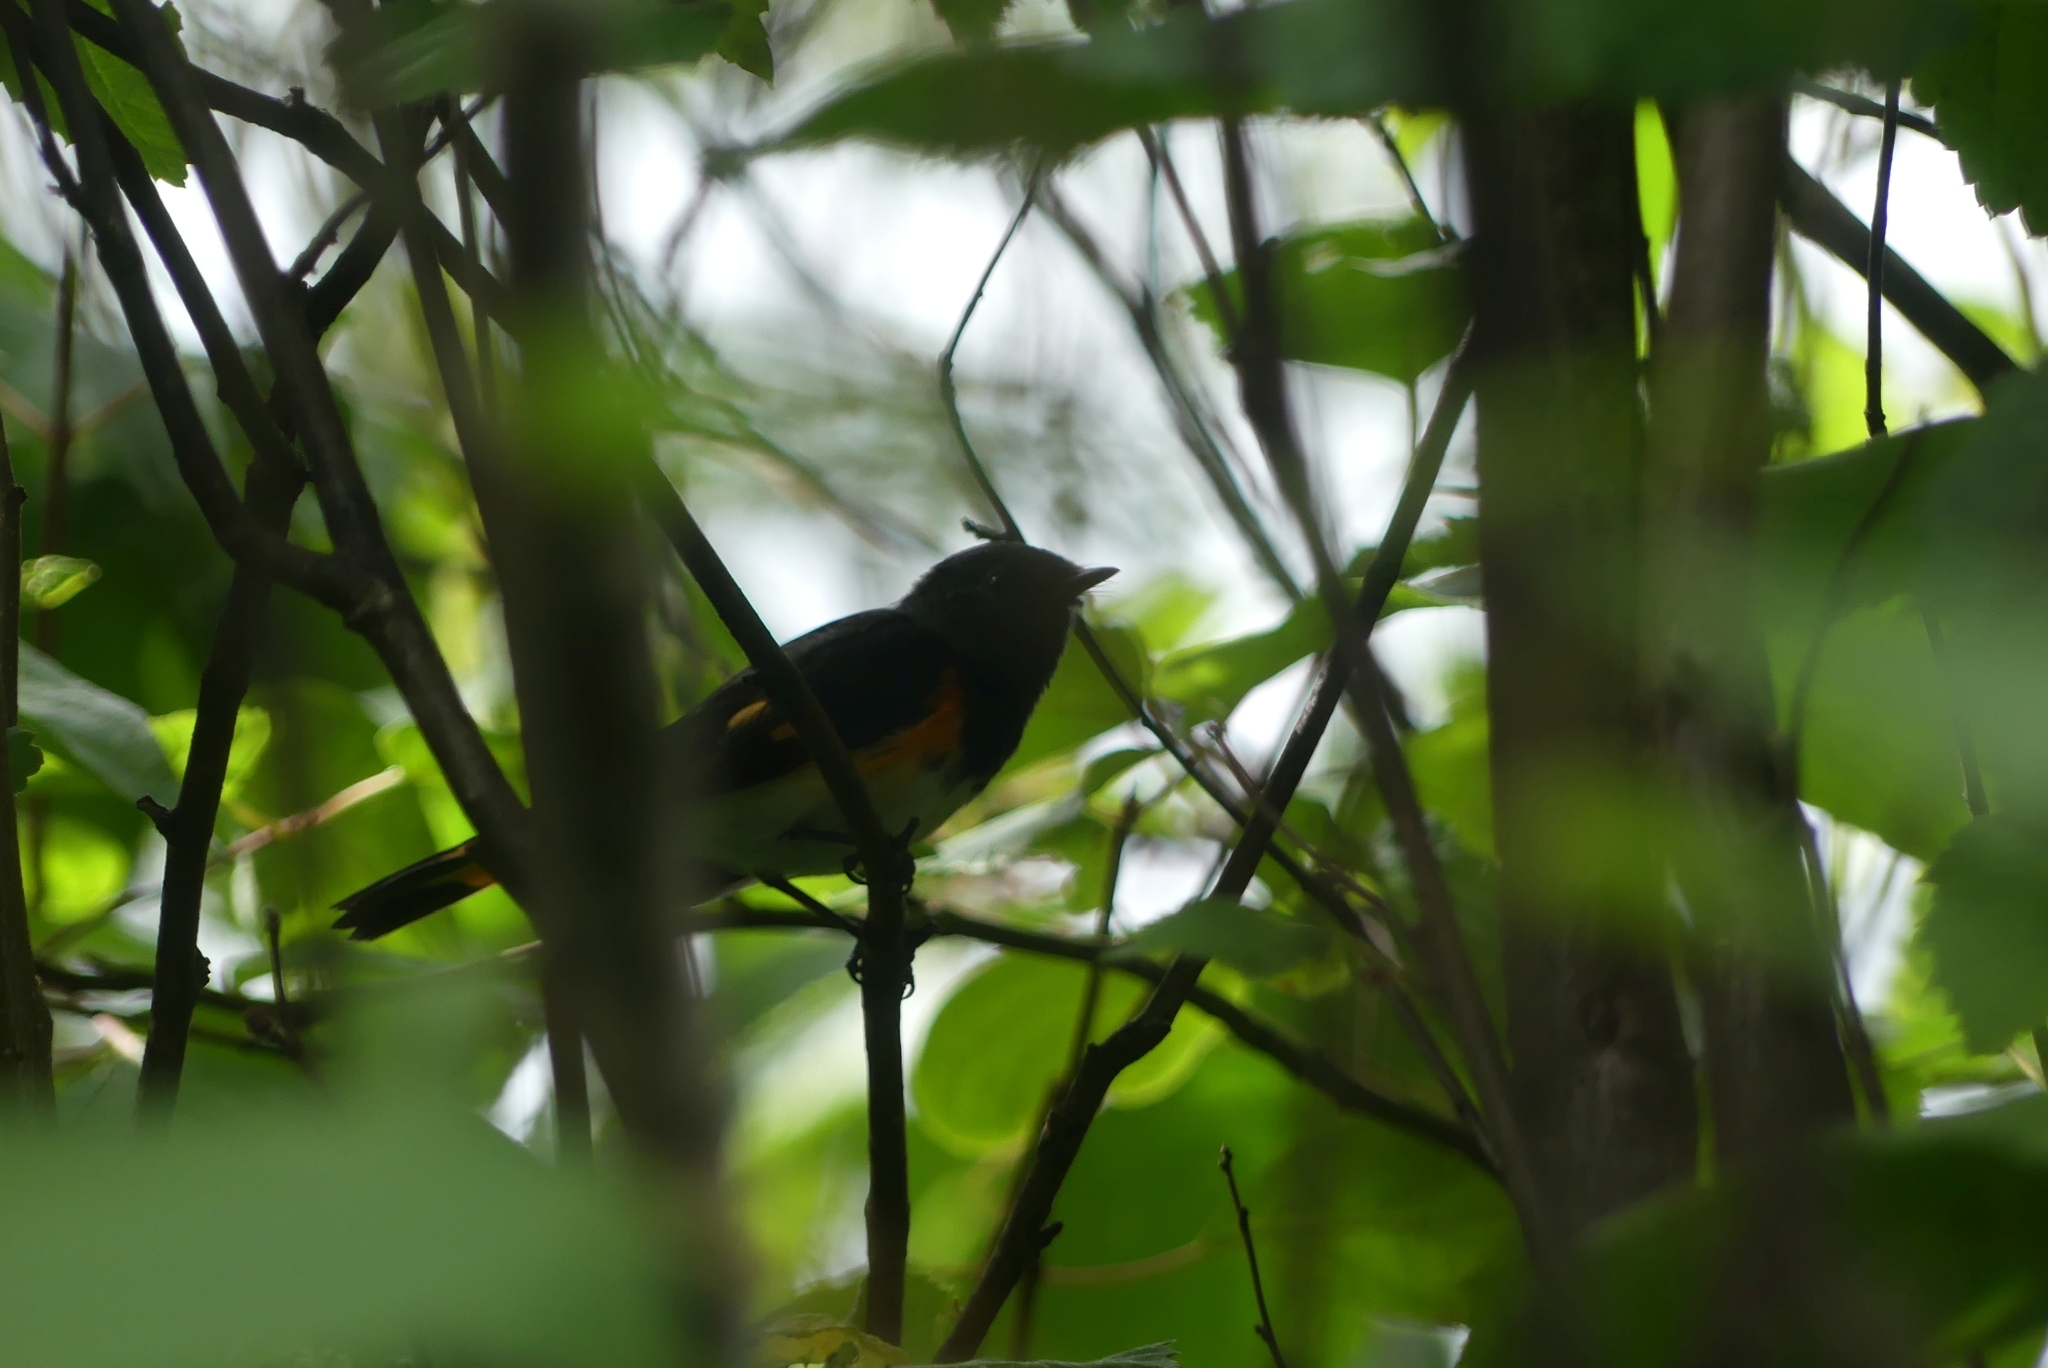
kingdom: Animalia
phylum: Chordata
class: Aves
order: Passeriformes
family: Parulidae
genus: Setophaga
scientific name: Setophaga ruticilla
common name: American redstart
